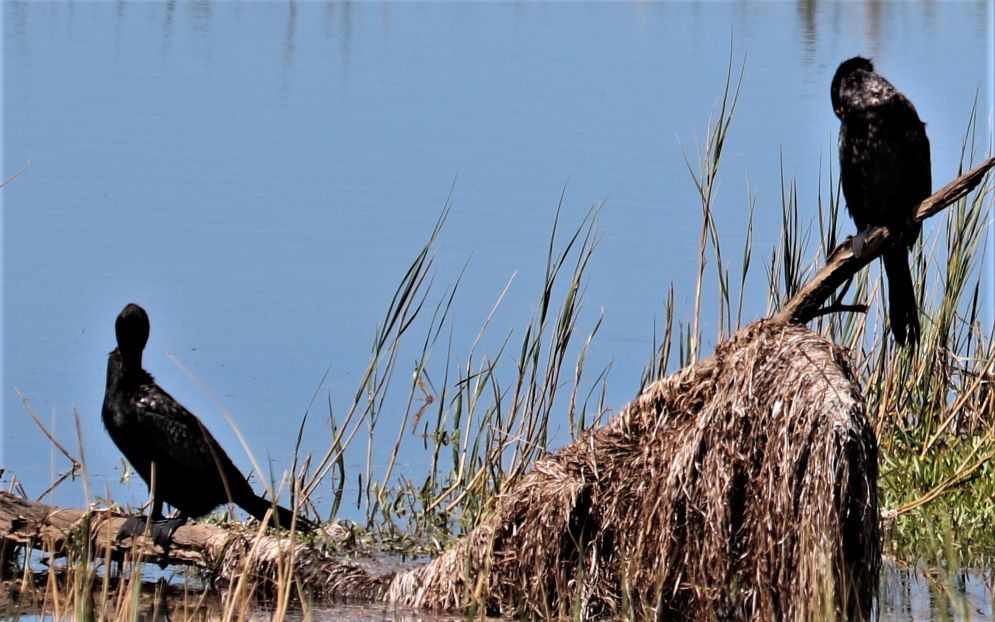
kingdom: Animalia
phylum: Chordata
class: Aves
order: Suliformes
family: Phalacrocoracidae
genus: Microcarbo
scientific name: Microcarbo africanus
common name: Long-tailed cormorant
